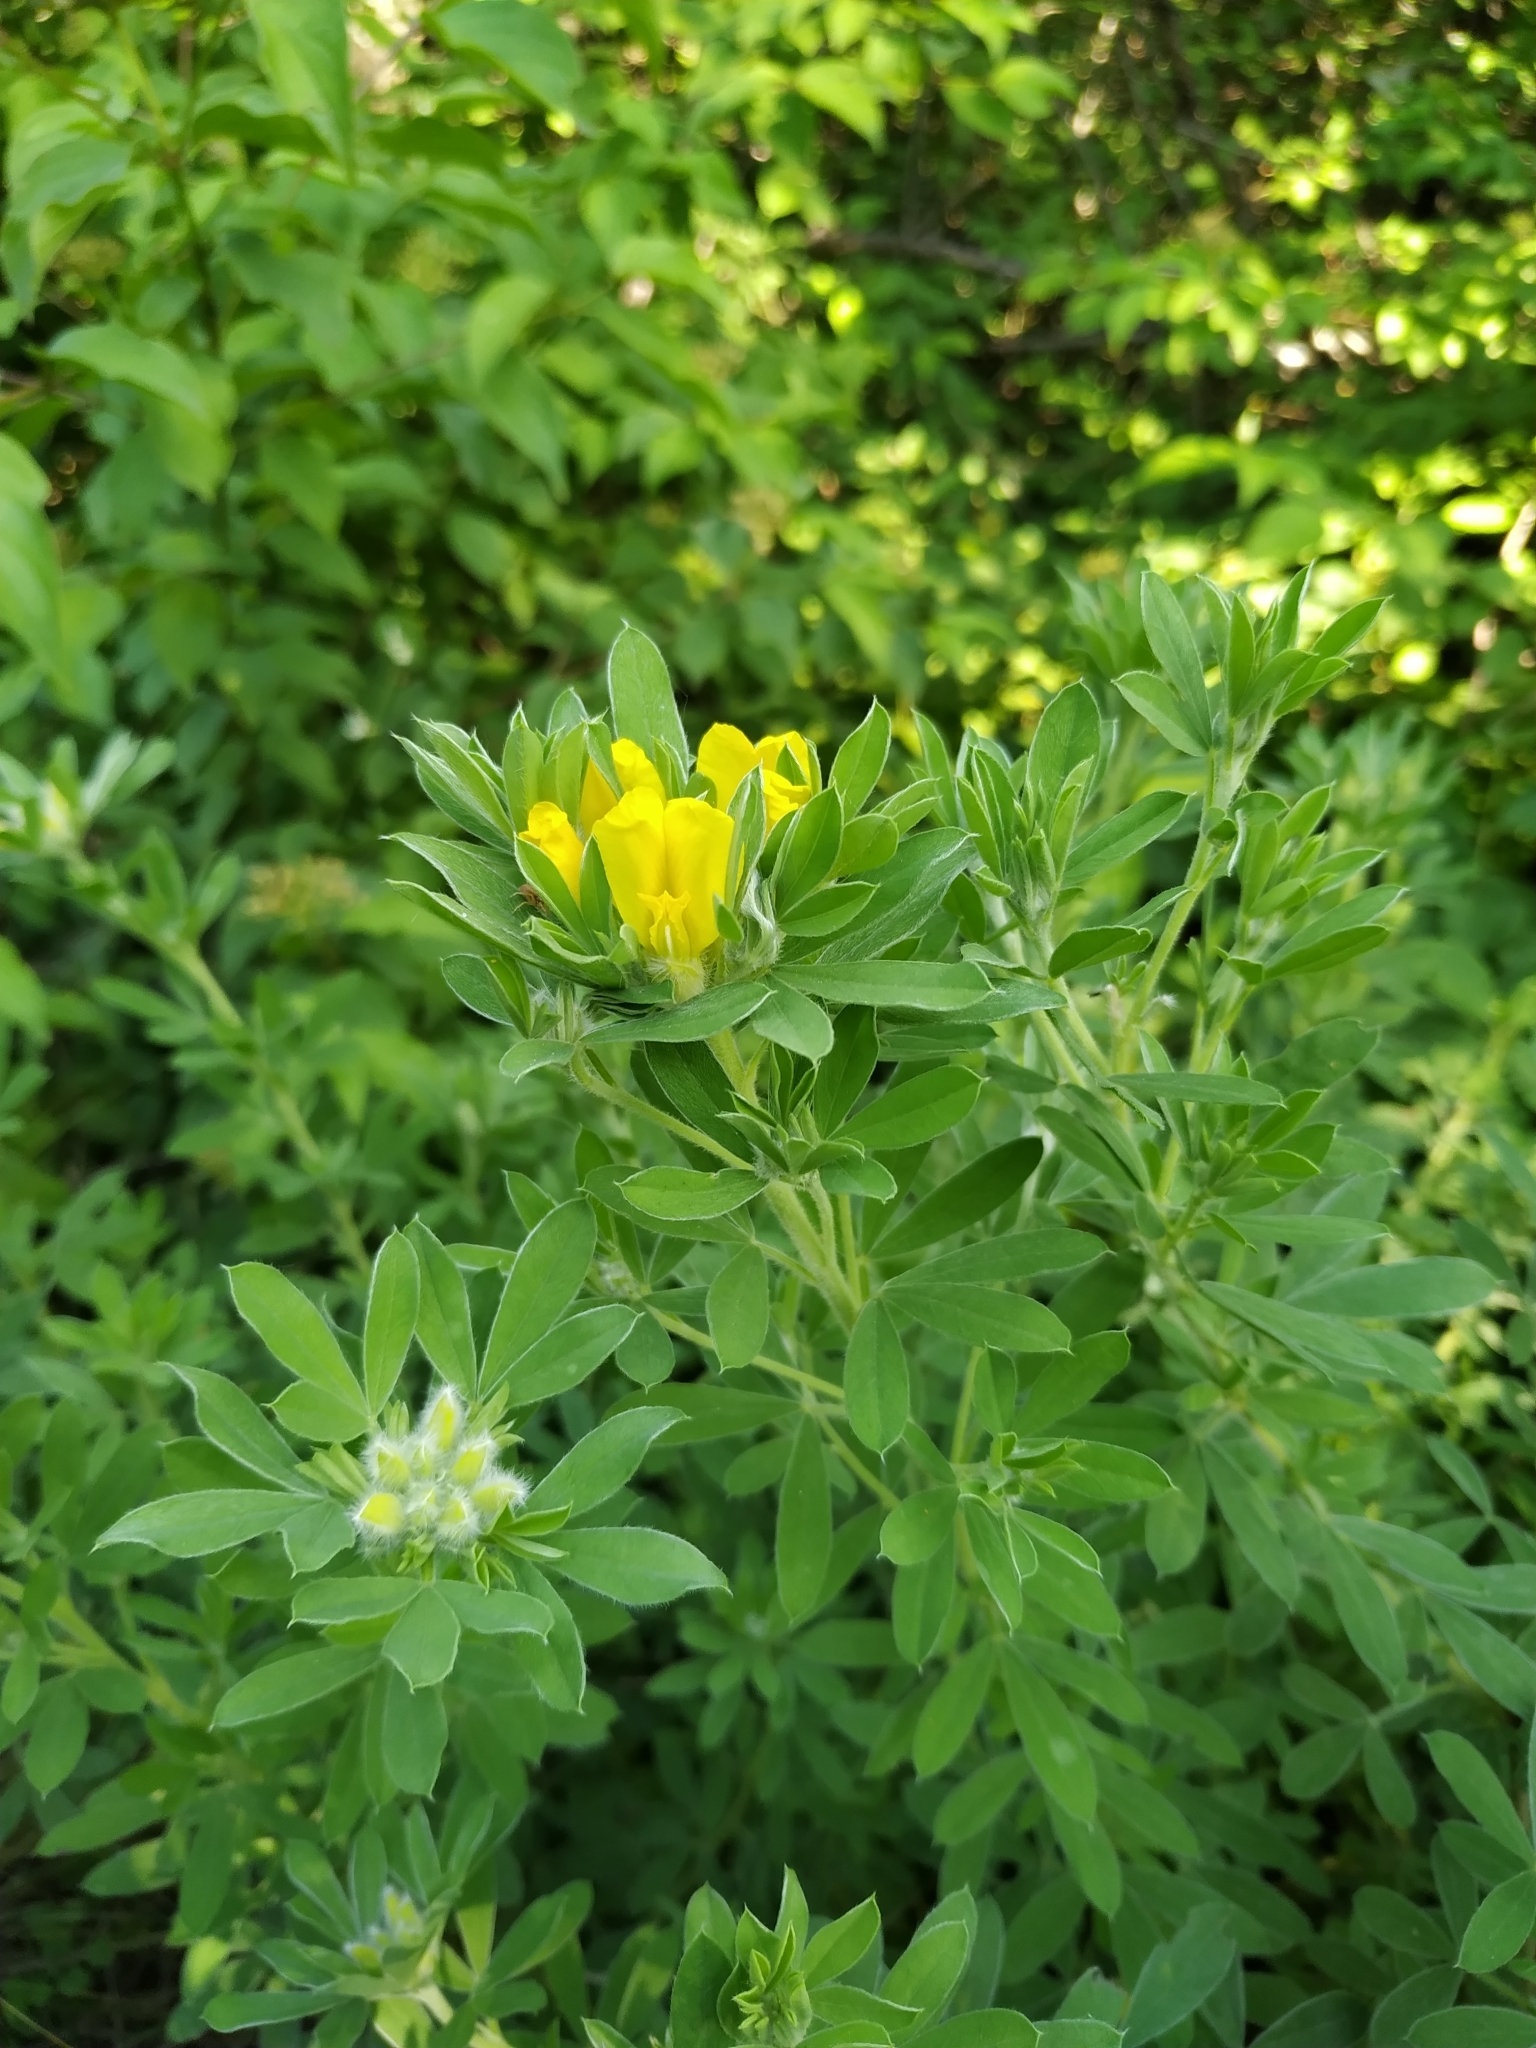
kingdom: Plantae
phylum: Tracheophyta
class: Magnoliopsida
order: Fabales
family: Fabaceae
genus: Chamaecytisus
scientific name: Chamaecytisus austriacus
